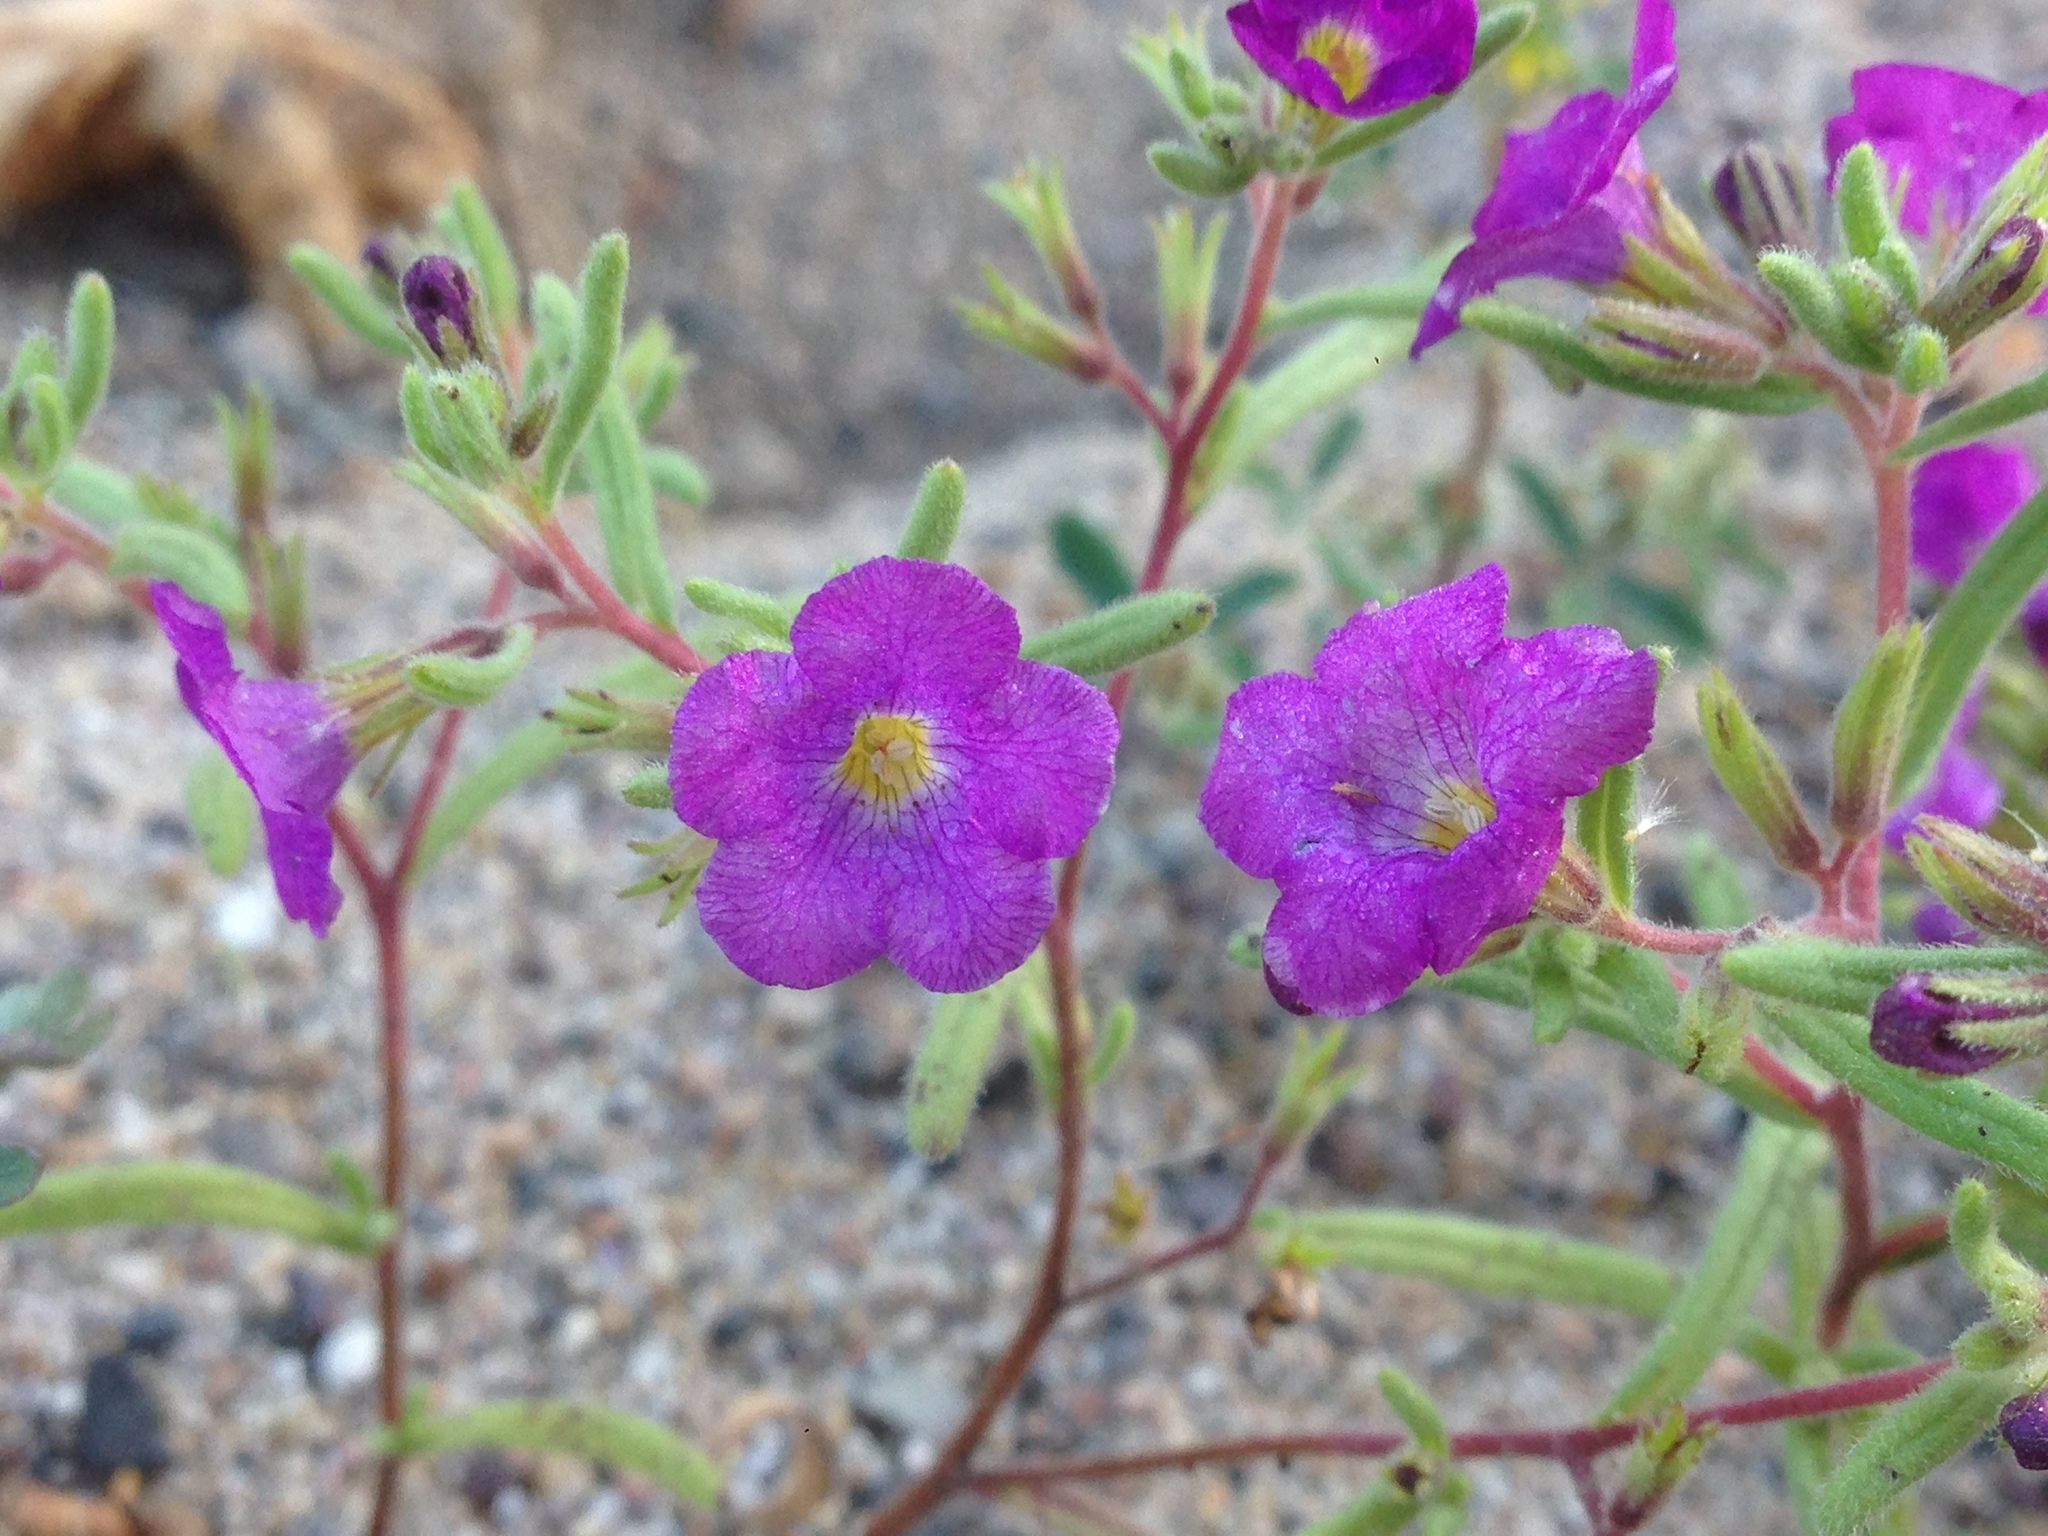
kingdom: Plantae
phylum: Tracheophyta
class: Magnoliopsida
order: Boraginales
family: Namaceae
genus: Nama
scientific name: Nama hispida
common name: Bristly nama
